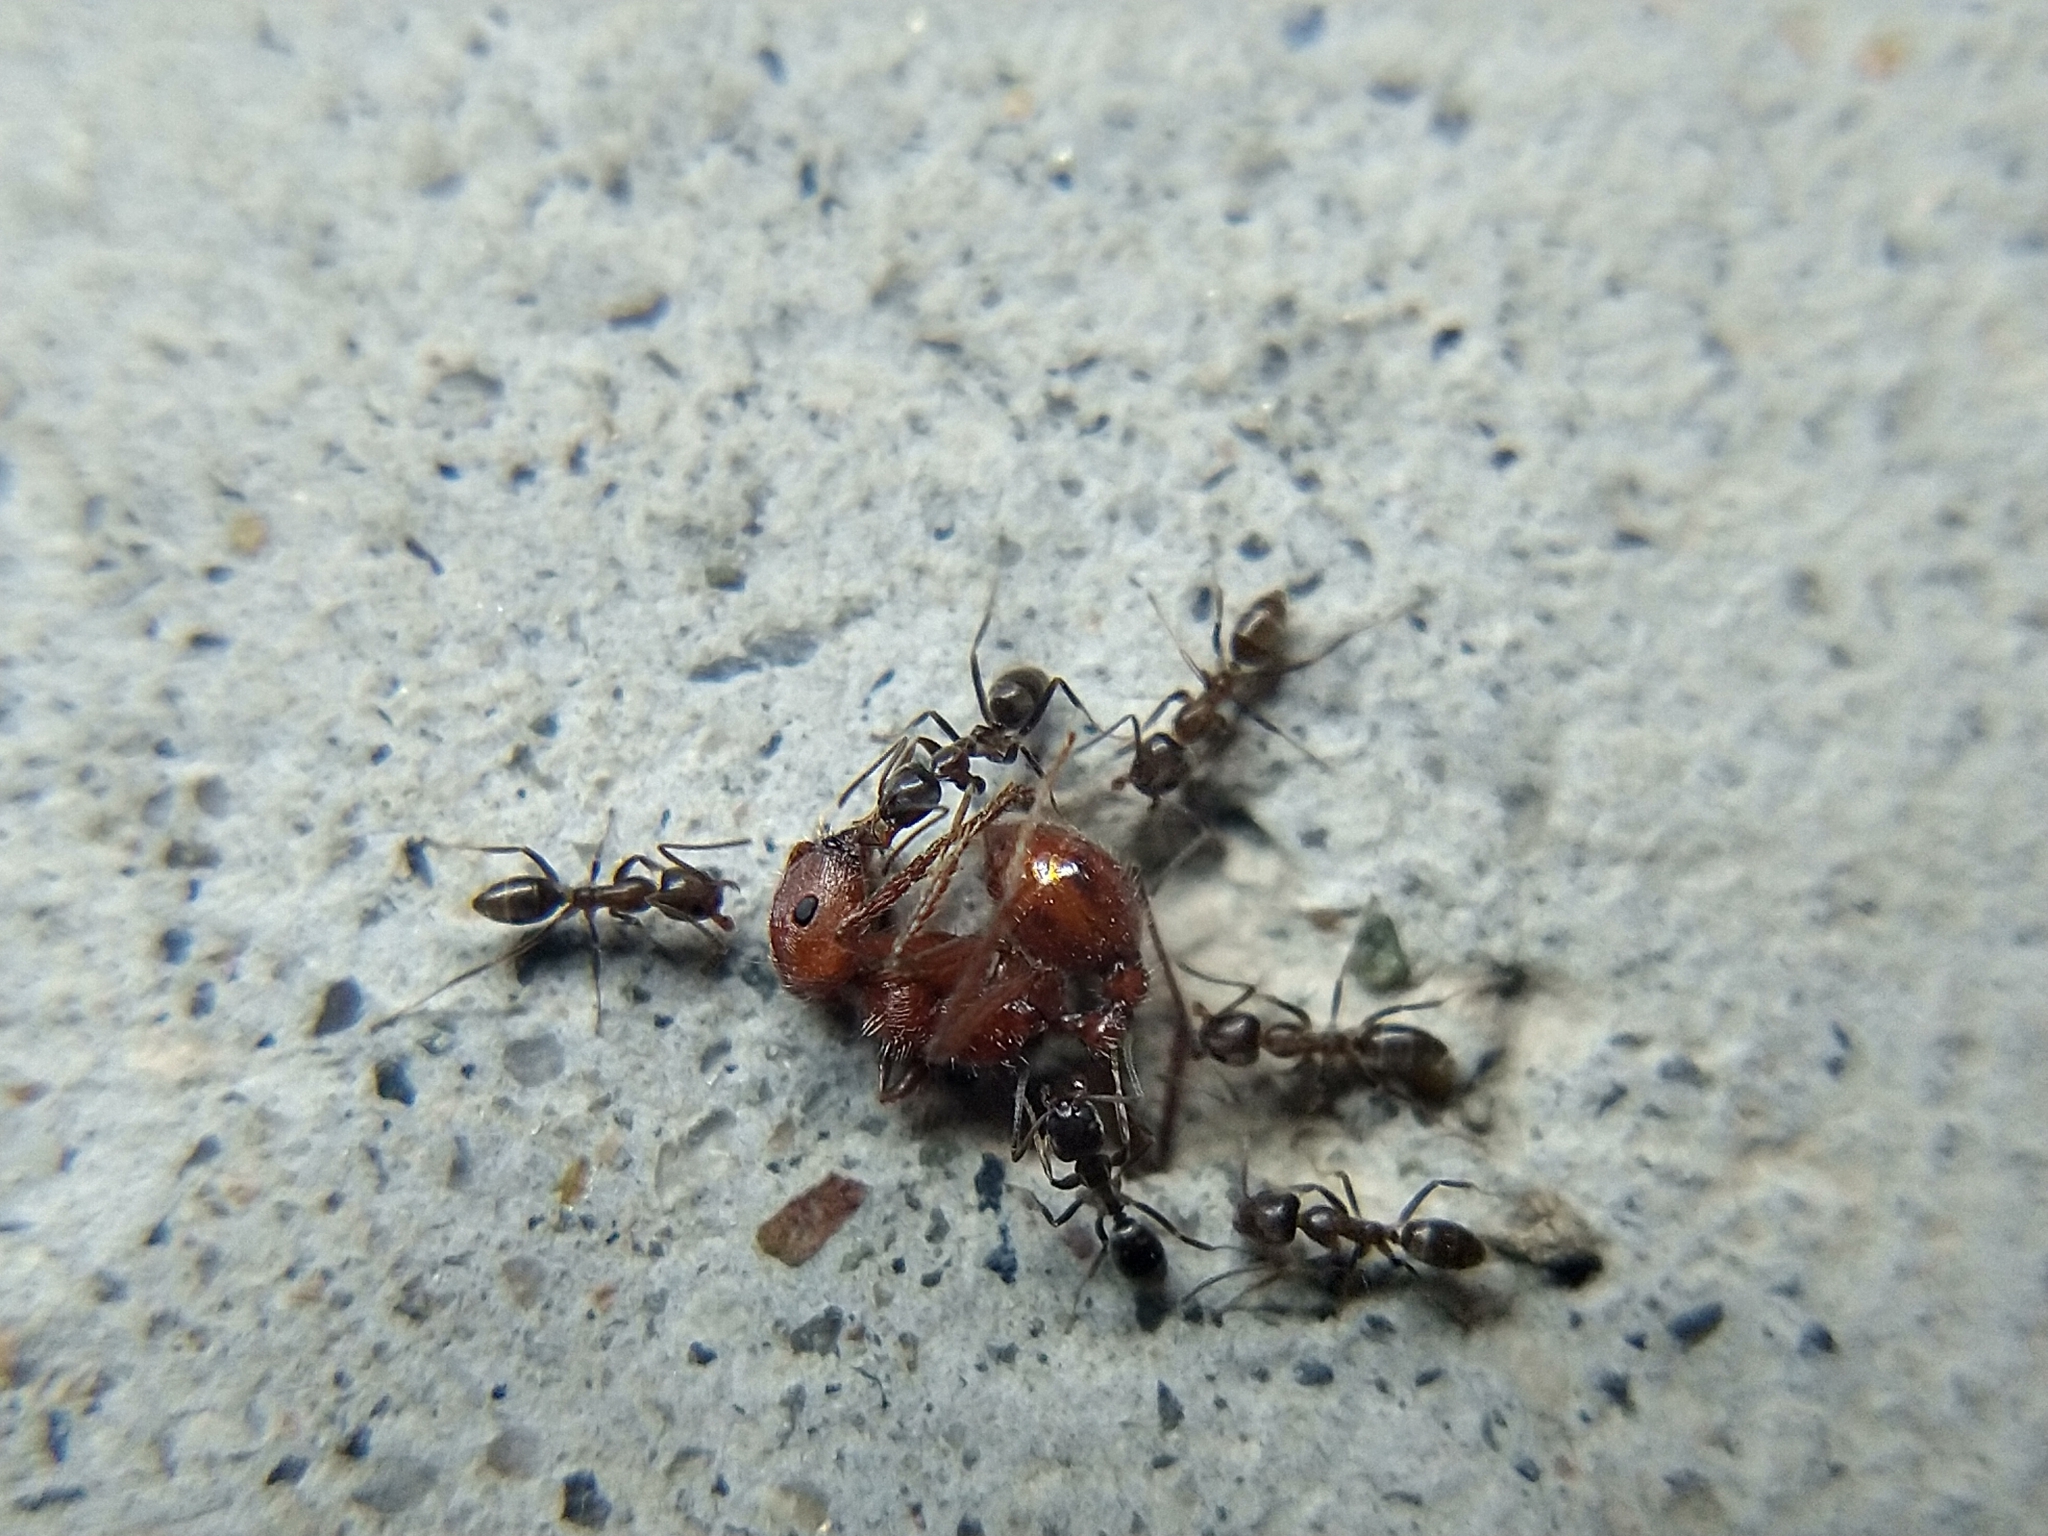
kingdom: Animalia
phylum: Arthropoda
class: Insecta
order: Hymenoptera
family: Formicidae
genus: Pogonomyrmex
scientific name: Pogonomyrmex
